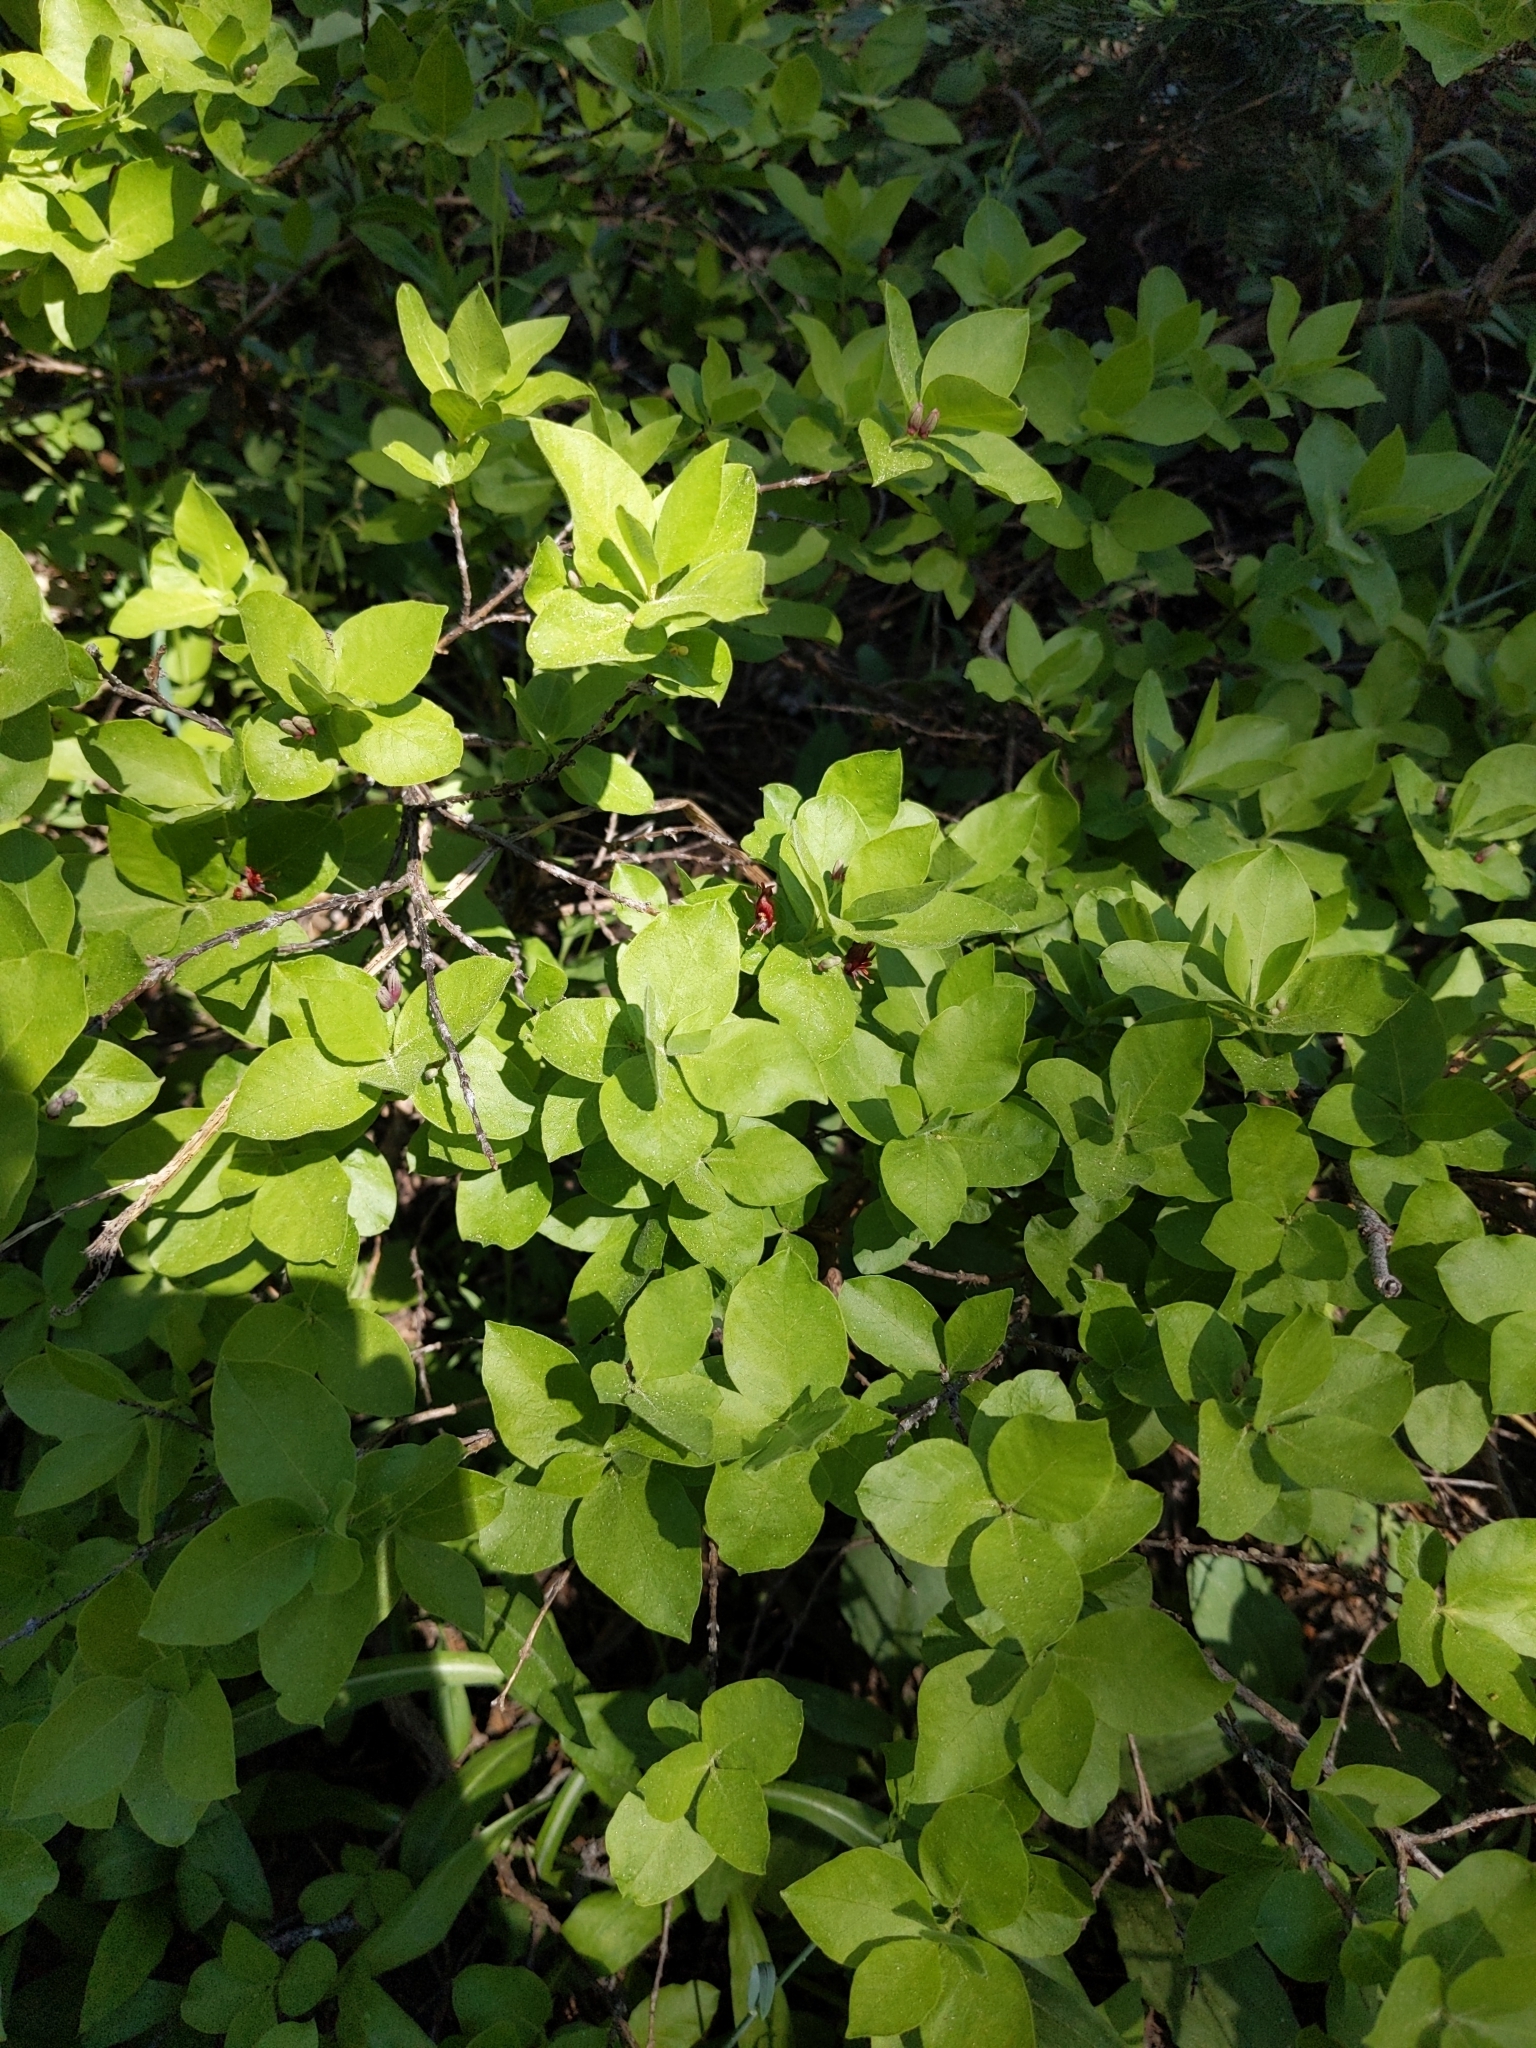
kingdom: Plantae
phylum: Tracheophyta
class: Magnoliopsida
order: Dipsacales
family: Caprifoliaceae
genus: Lonicera
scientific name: Lonicera conjugialis
